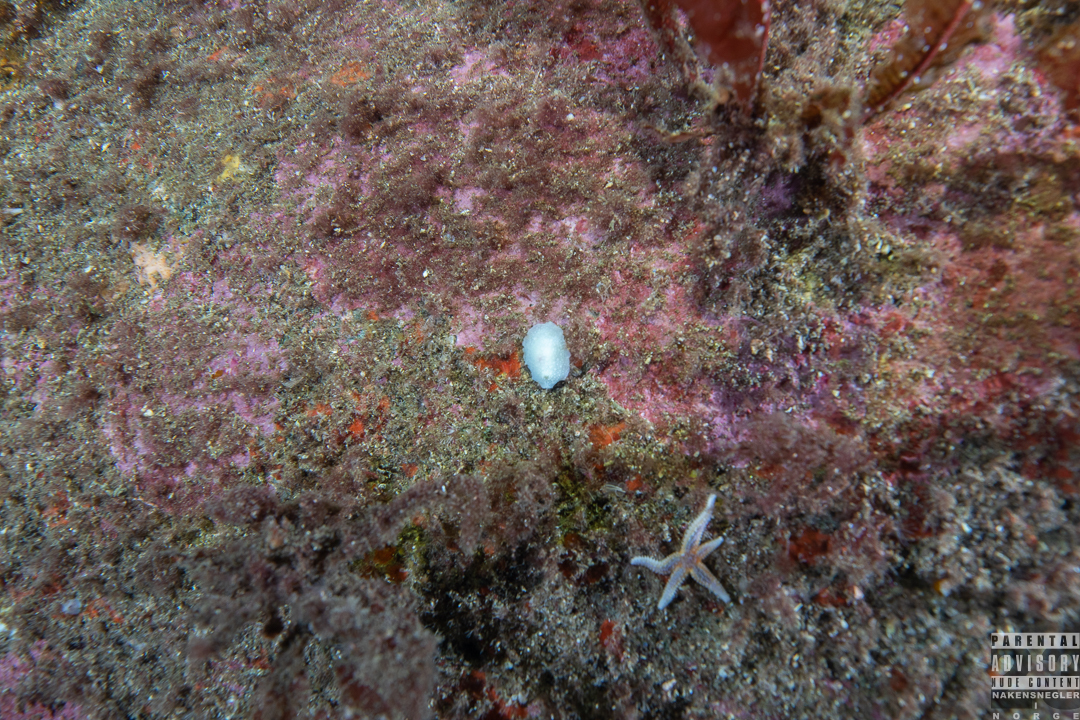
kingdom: Animalia
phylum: Mollusca
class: Gastropoda
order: Nudibranchia
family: Cadlinidae
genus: Aldisa
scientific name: Aldisa zetlandica
